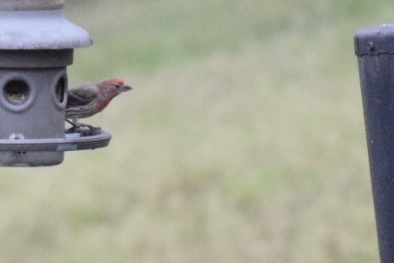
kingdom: Animalia
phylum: Chordata
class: Aves
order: Passeriformes
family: Fringillidae
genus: Haemorhous
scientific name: Haemorhous mexicanus
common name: House finch
